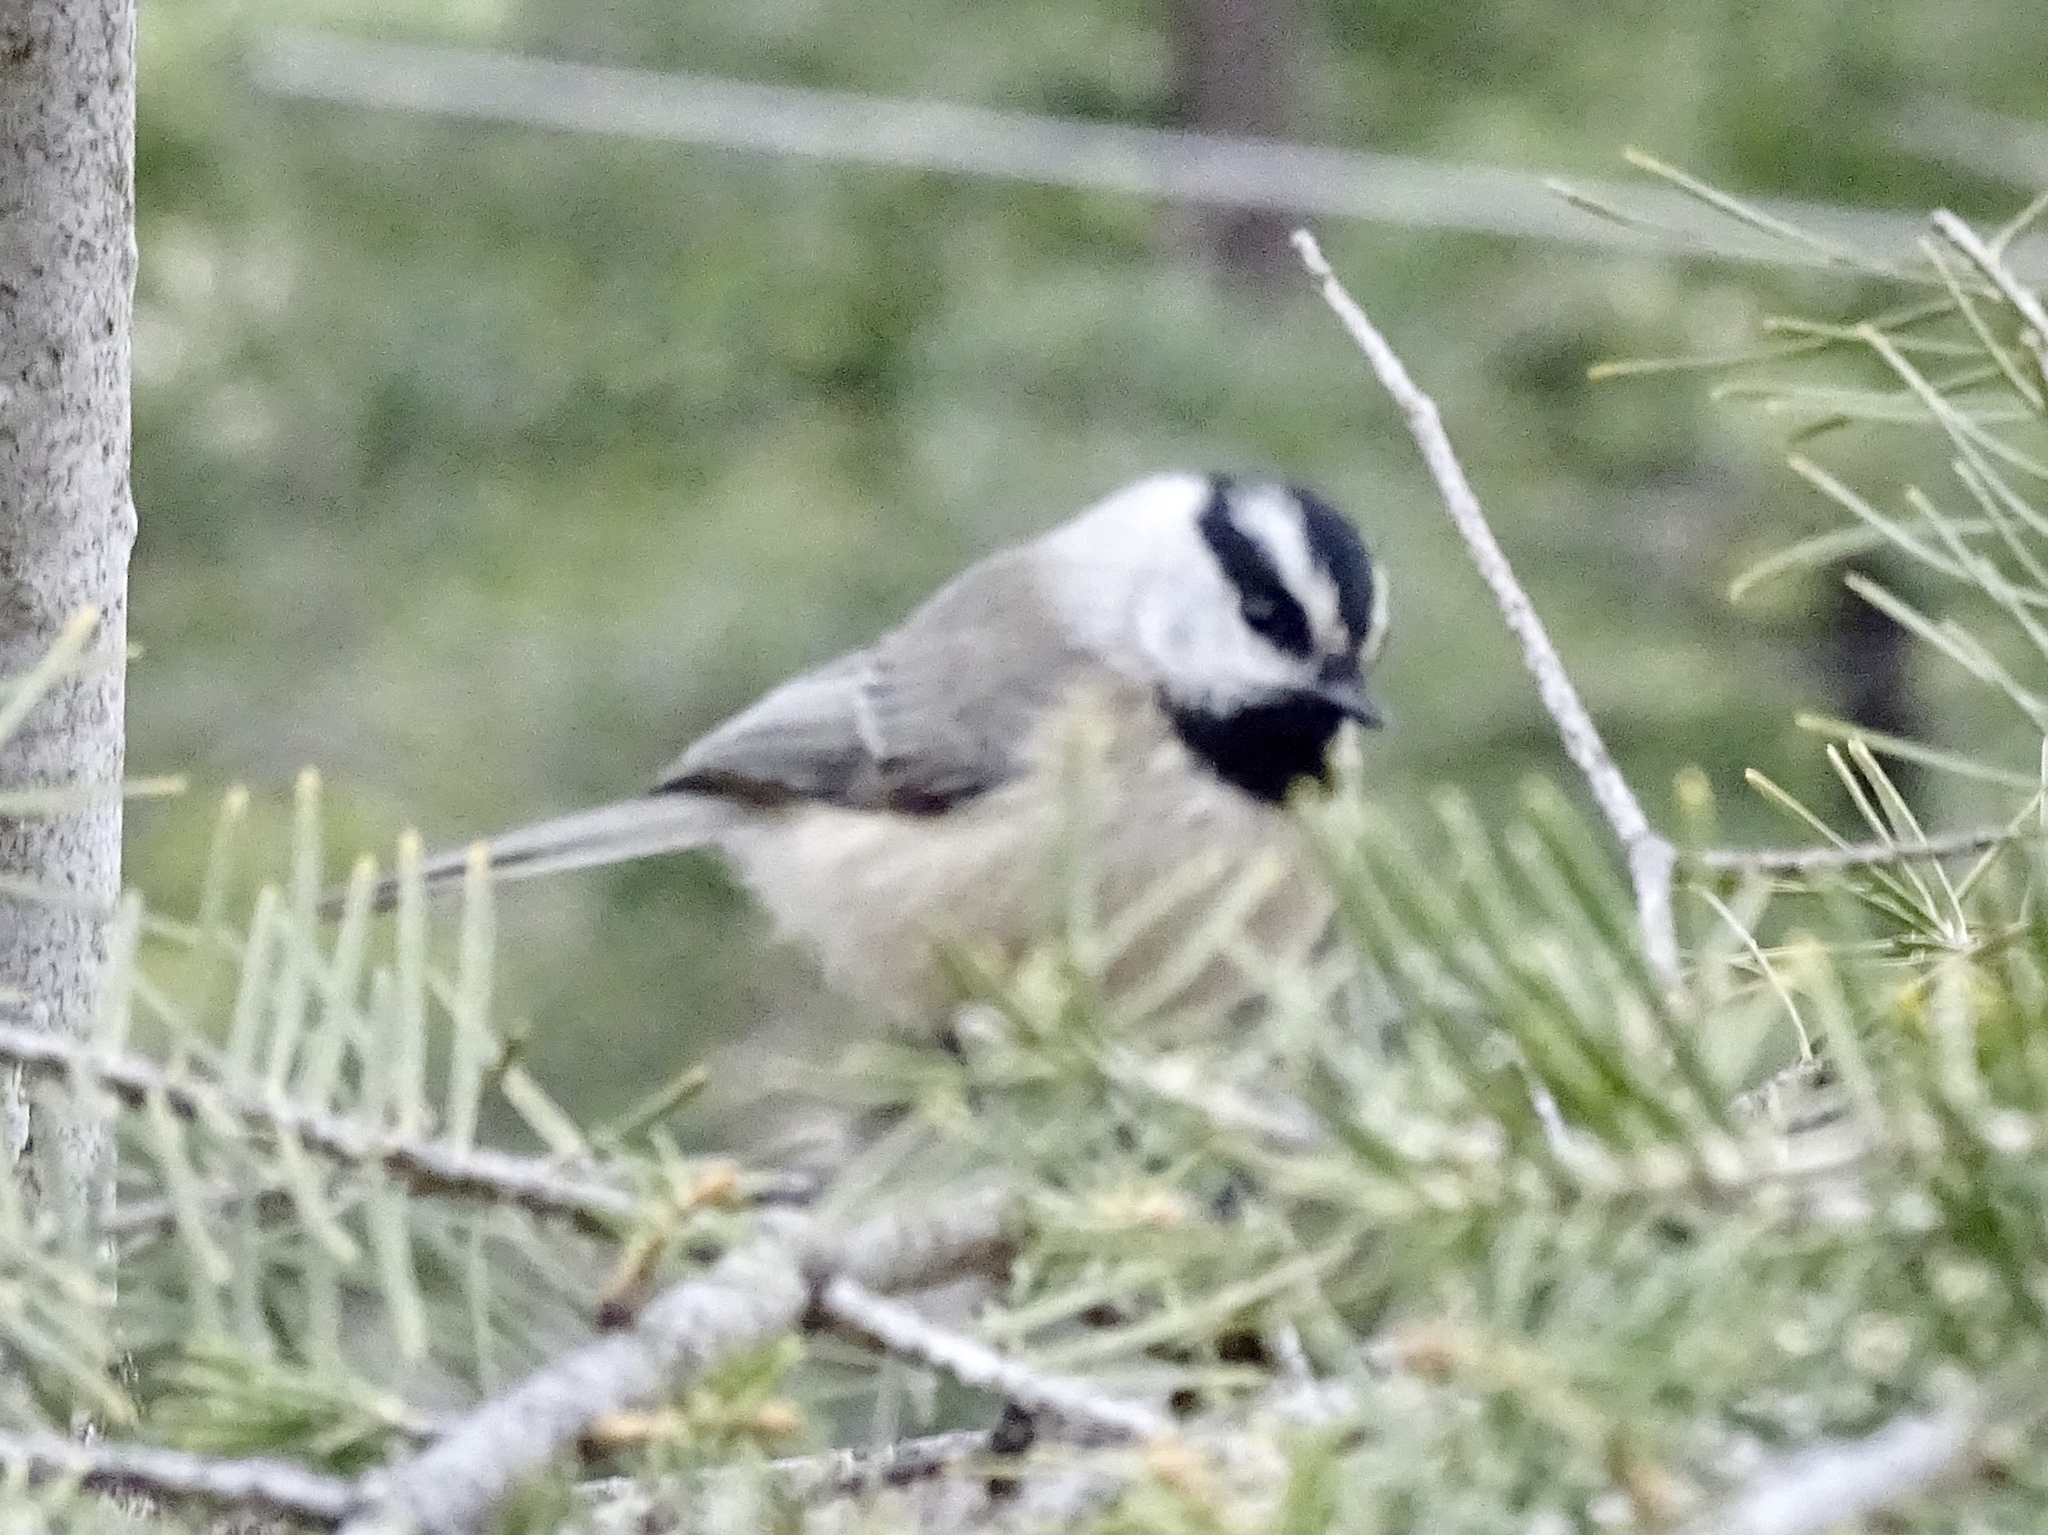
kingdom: Animalia
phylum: Chordata
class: Aves
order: Passeriformes
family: Paridae
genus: Poecile
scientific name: Poecile gambeli
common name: Mountain chickadee
